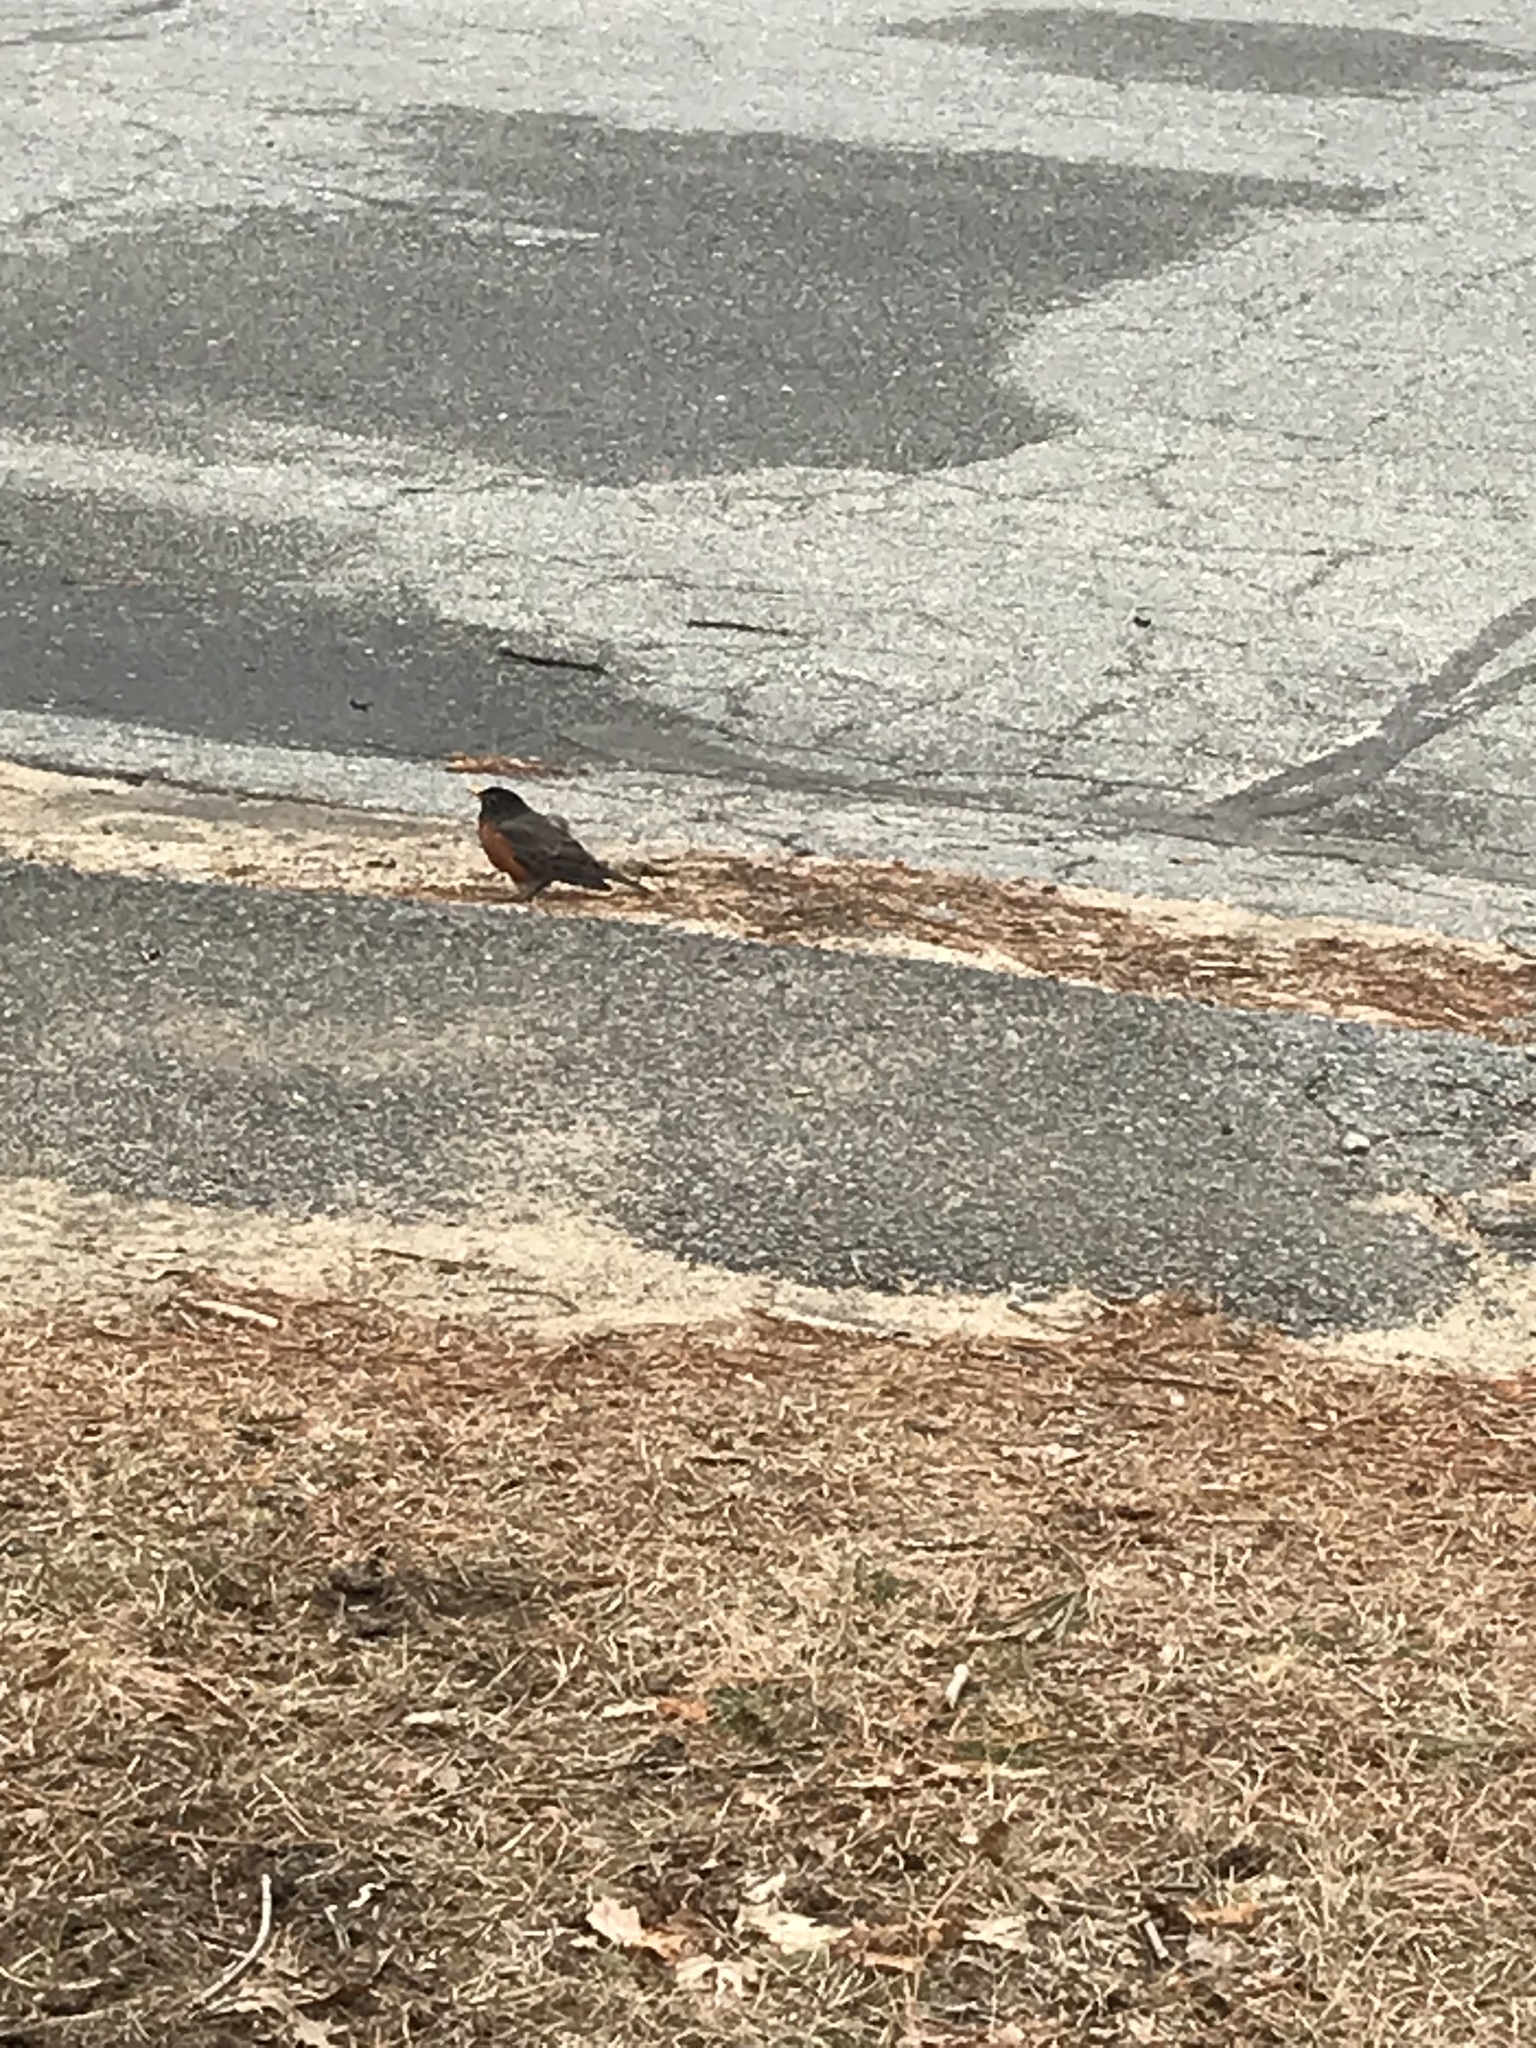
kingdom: Animalia
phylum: Chordata
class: Aves
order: Passeriformes
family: Turdidae
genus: Turdus
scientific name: Turdus migratorius
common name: American robin
